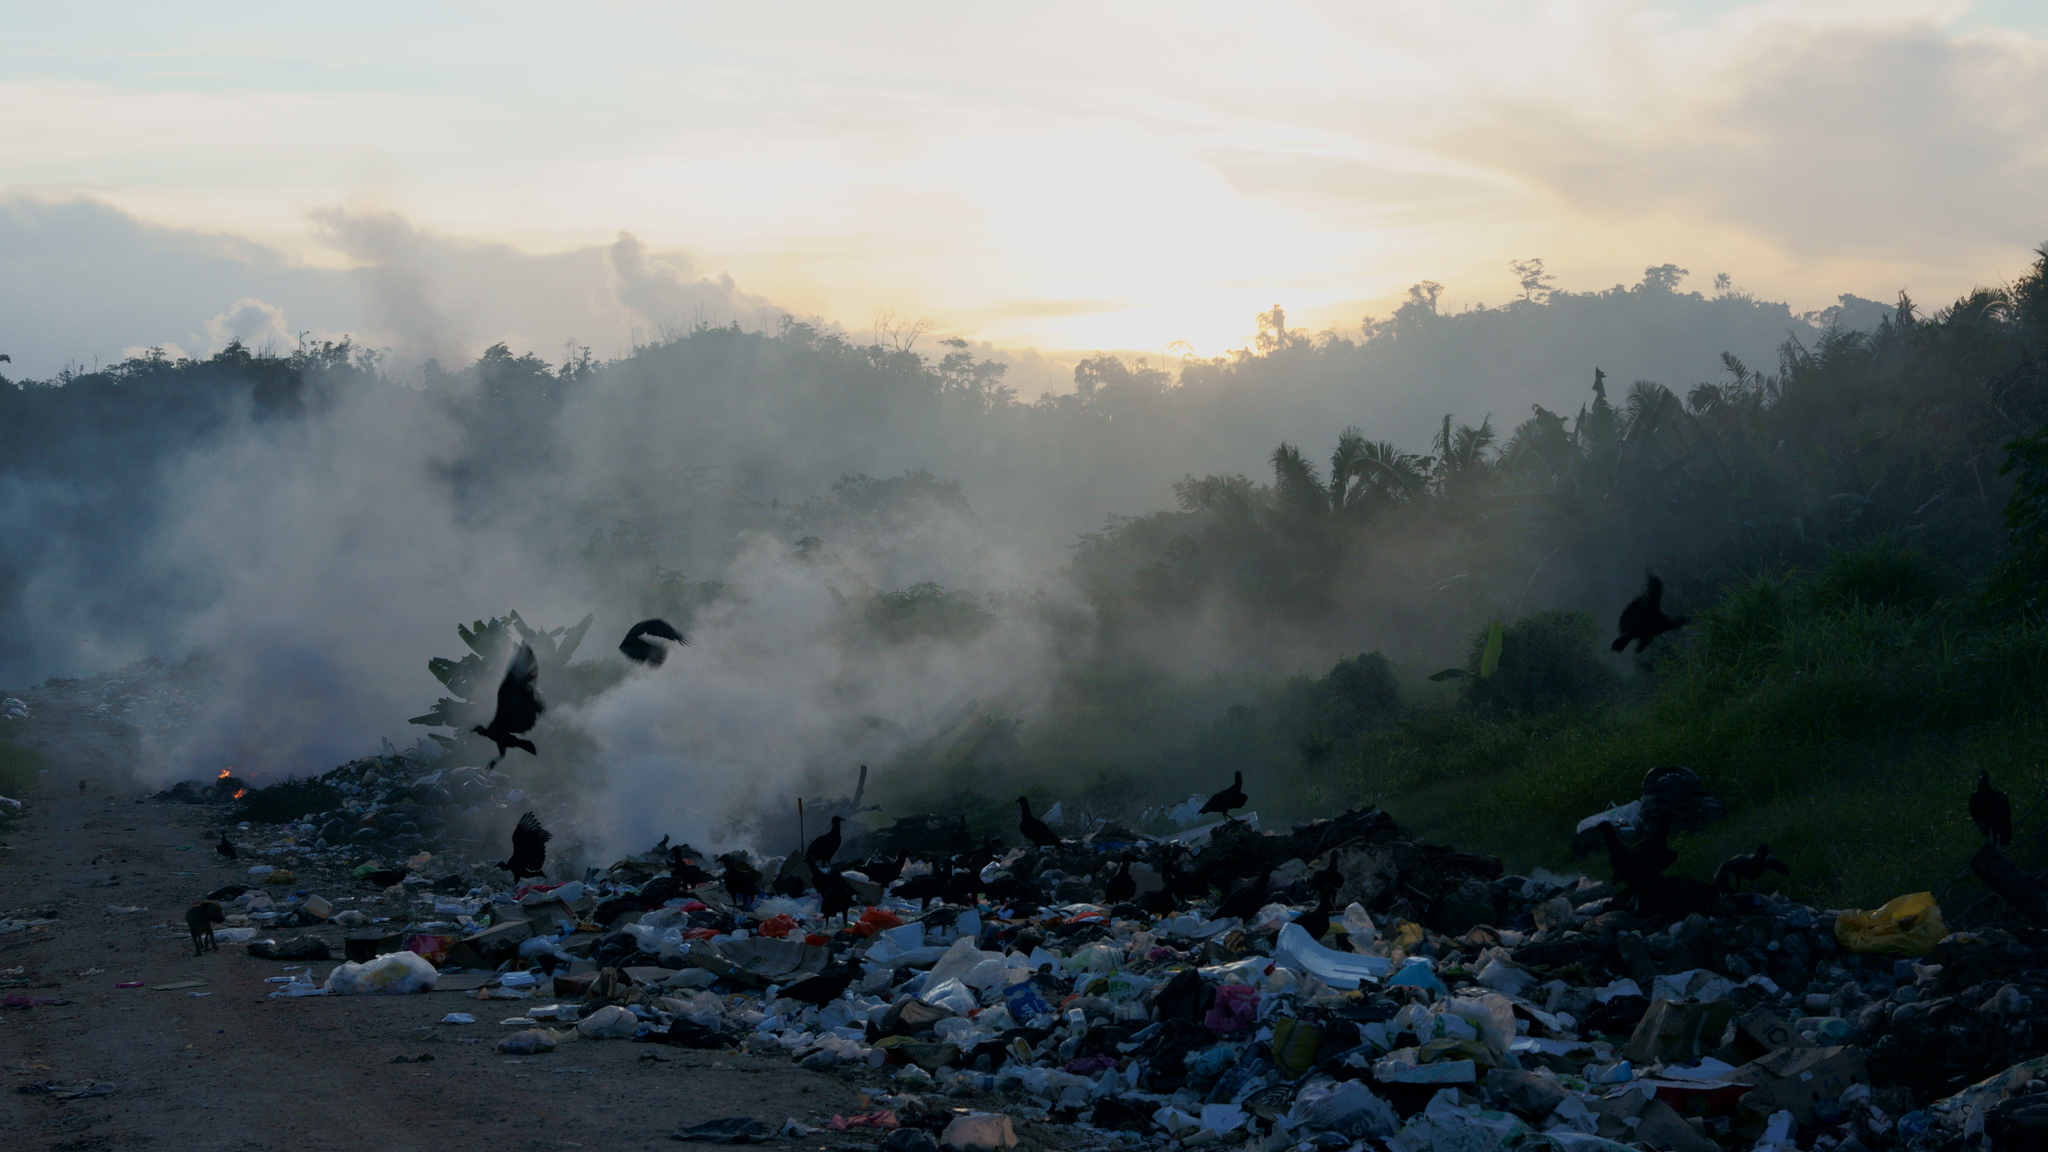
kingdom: Animalia
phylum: Chordata
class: Aves
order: Accipitriformes
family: Cathartidae
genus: Coragyps
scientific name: Coragyps atratus
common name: Black vulture
